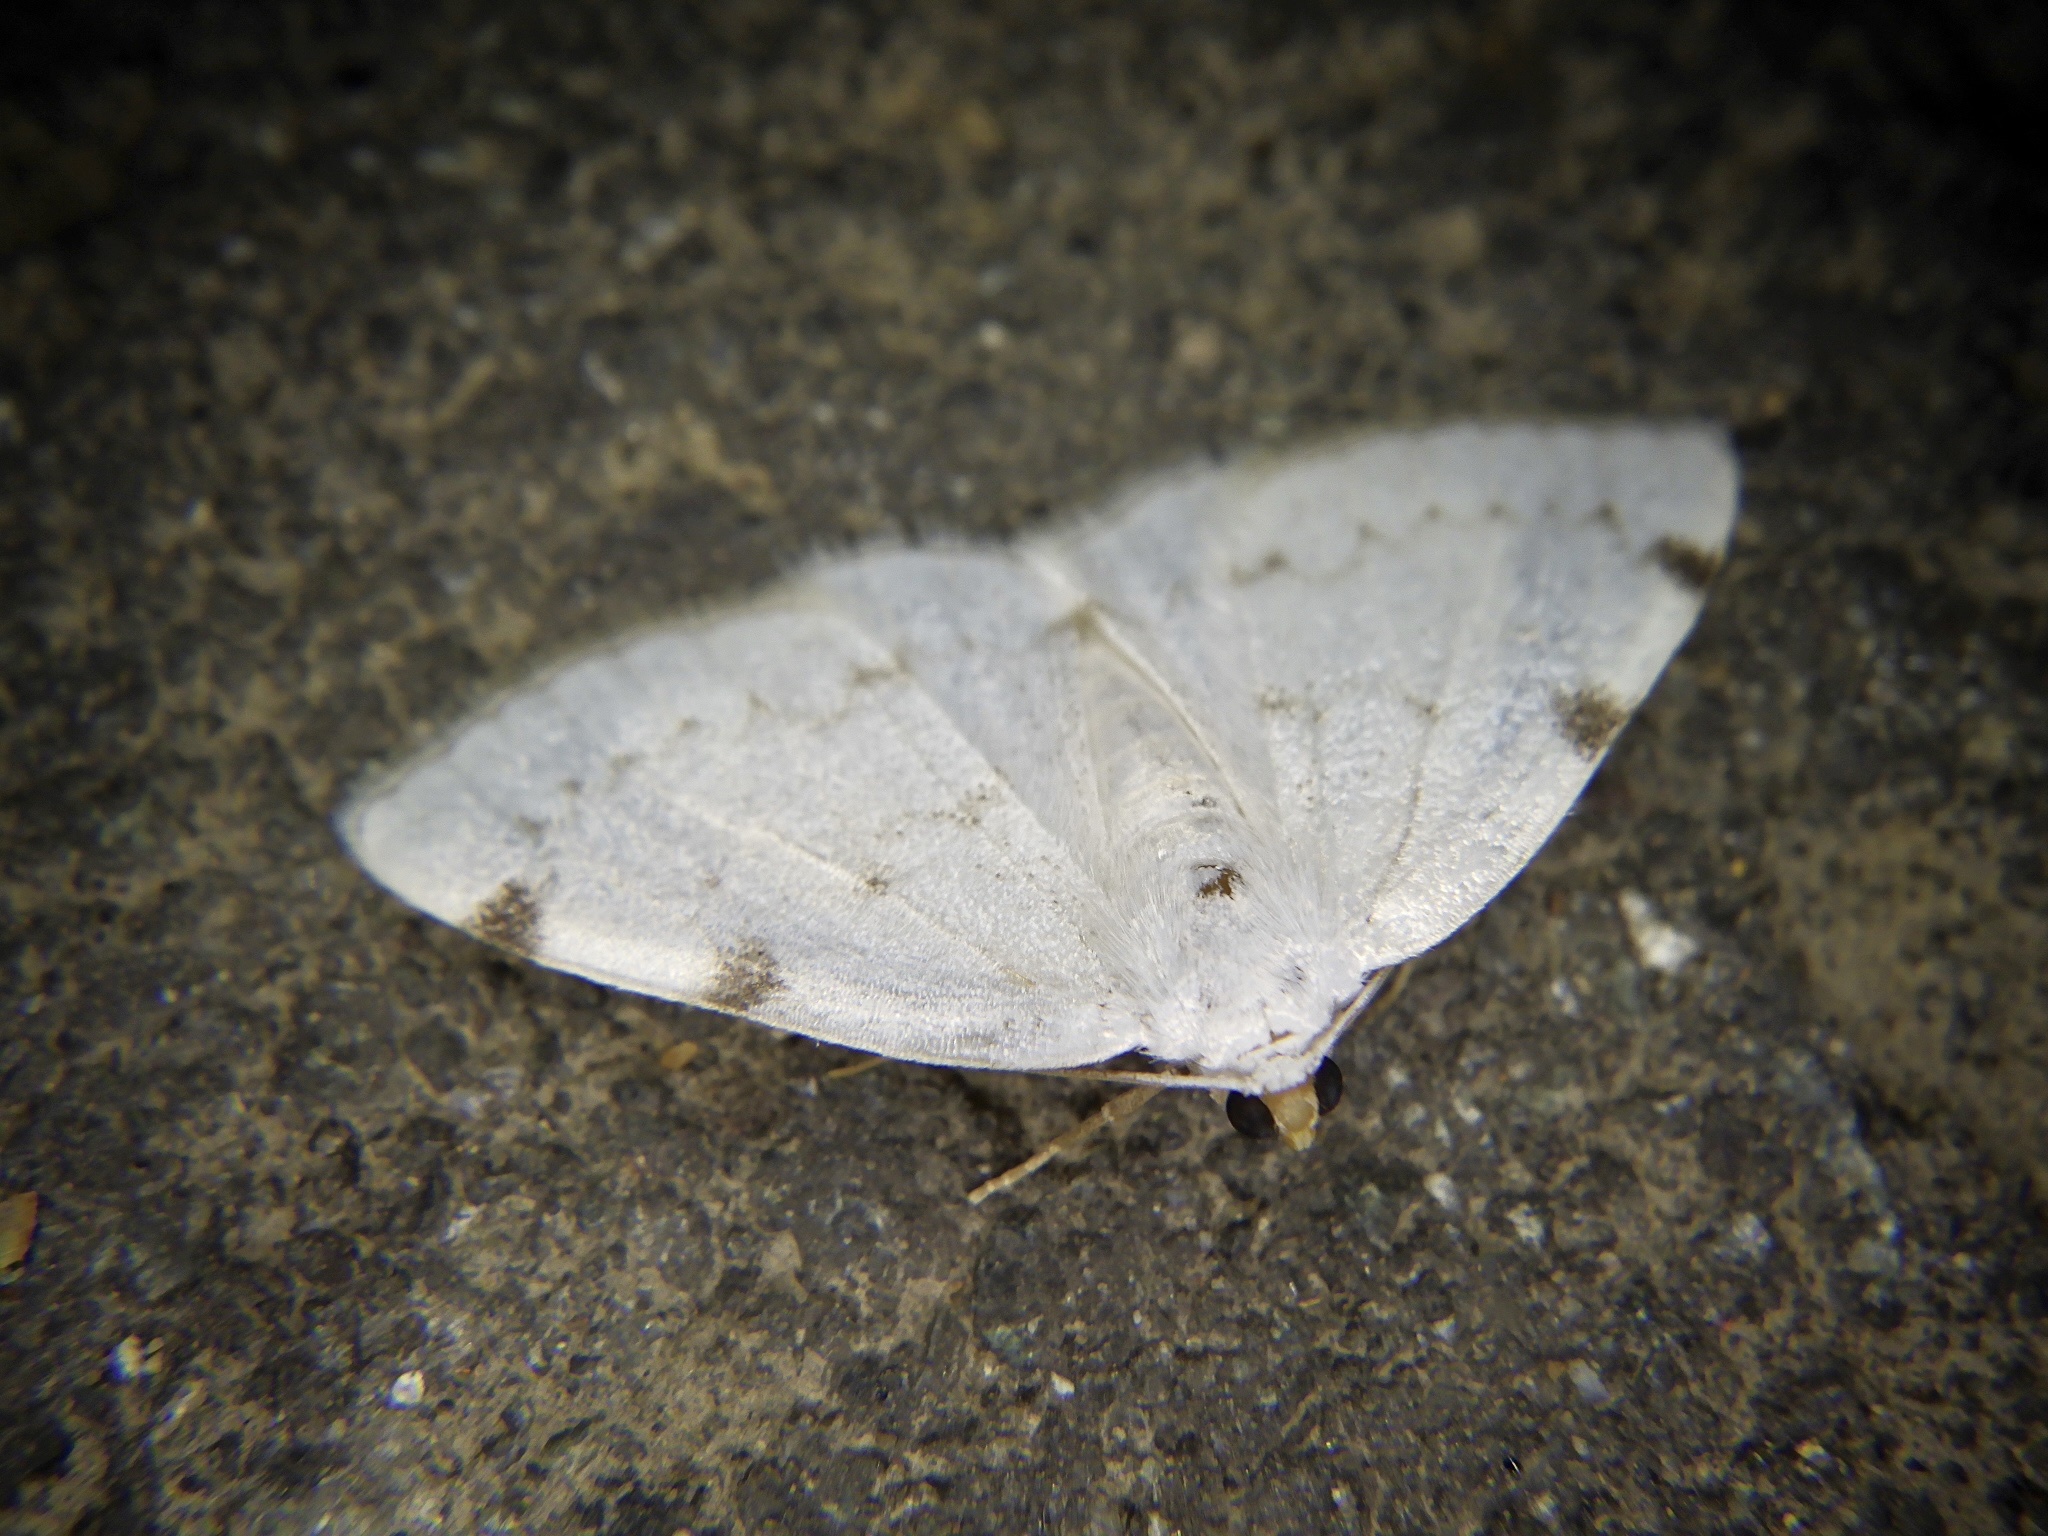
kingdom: Animalia
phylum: Arthropoda
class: Insecta
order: Lepidoptera
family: Geometridae
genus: Lomographa
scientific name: Lomographa bimaculata
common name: White-pinion spotted
